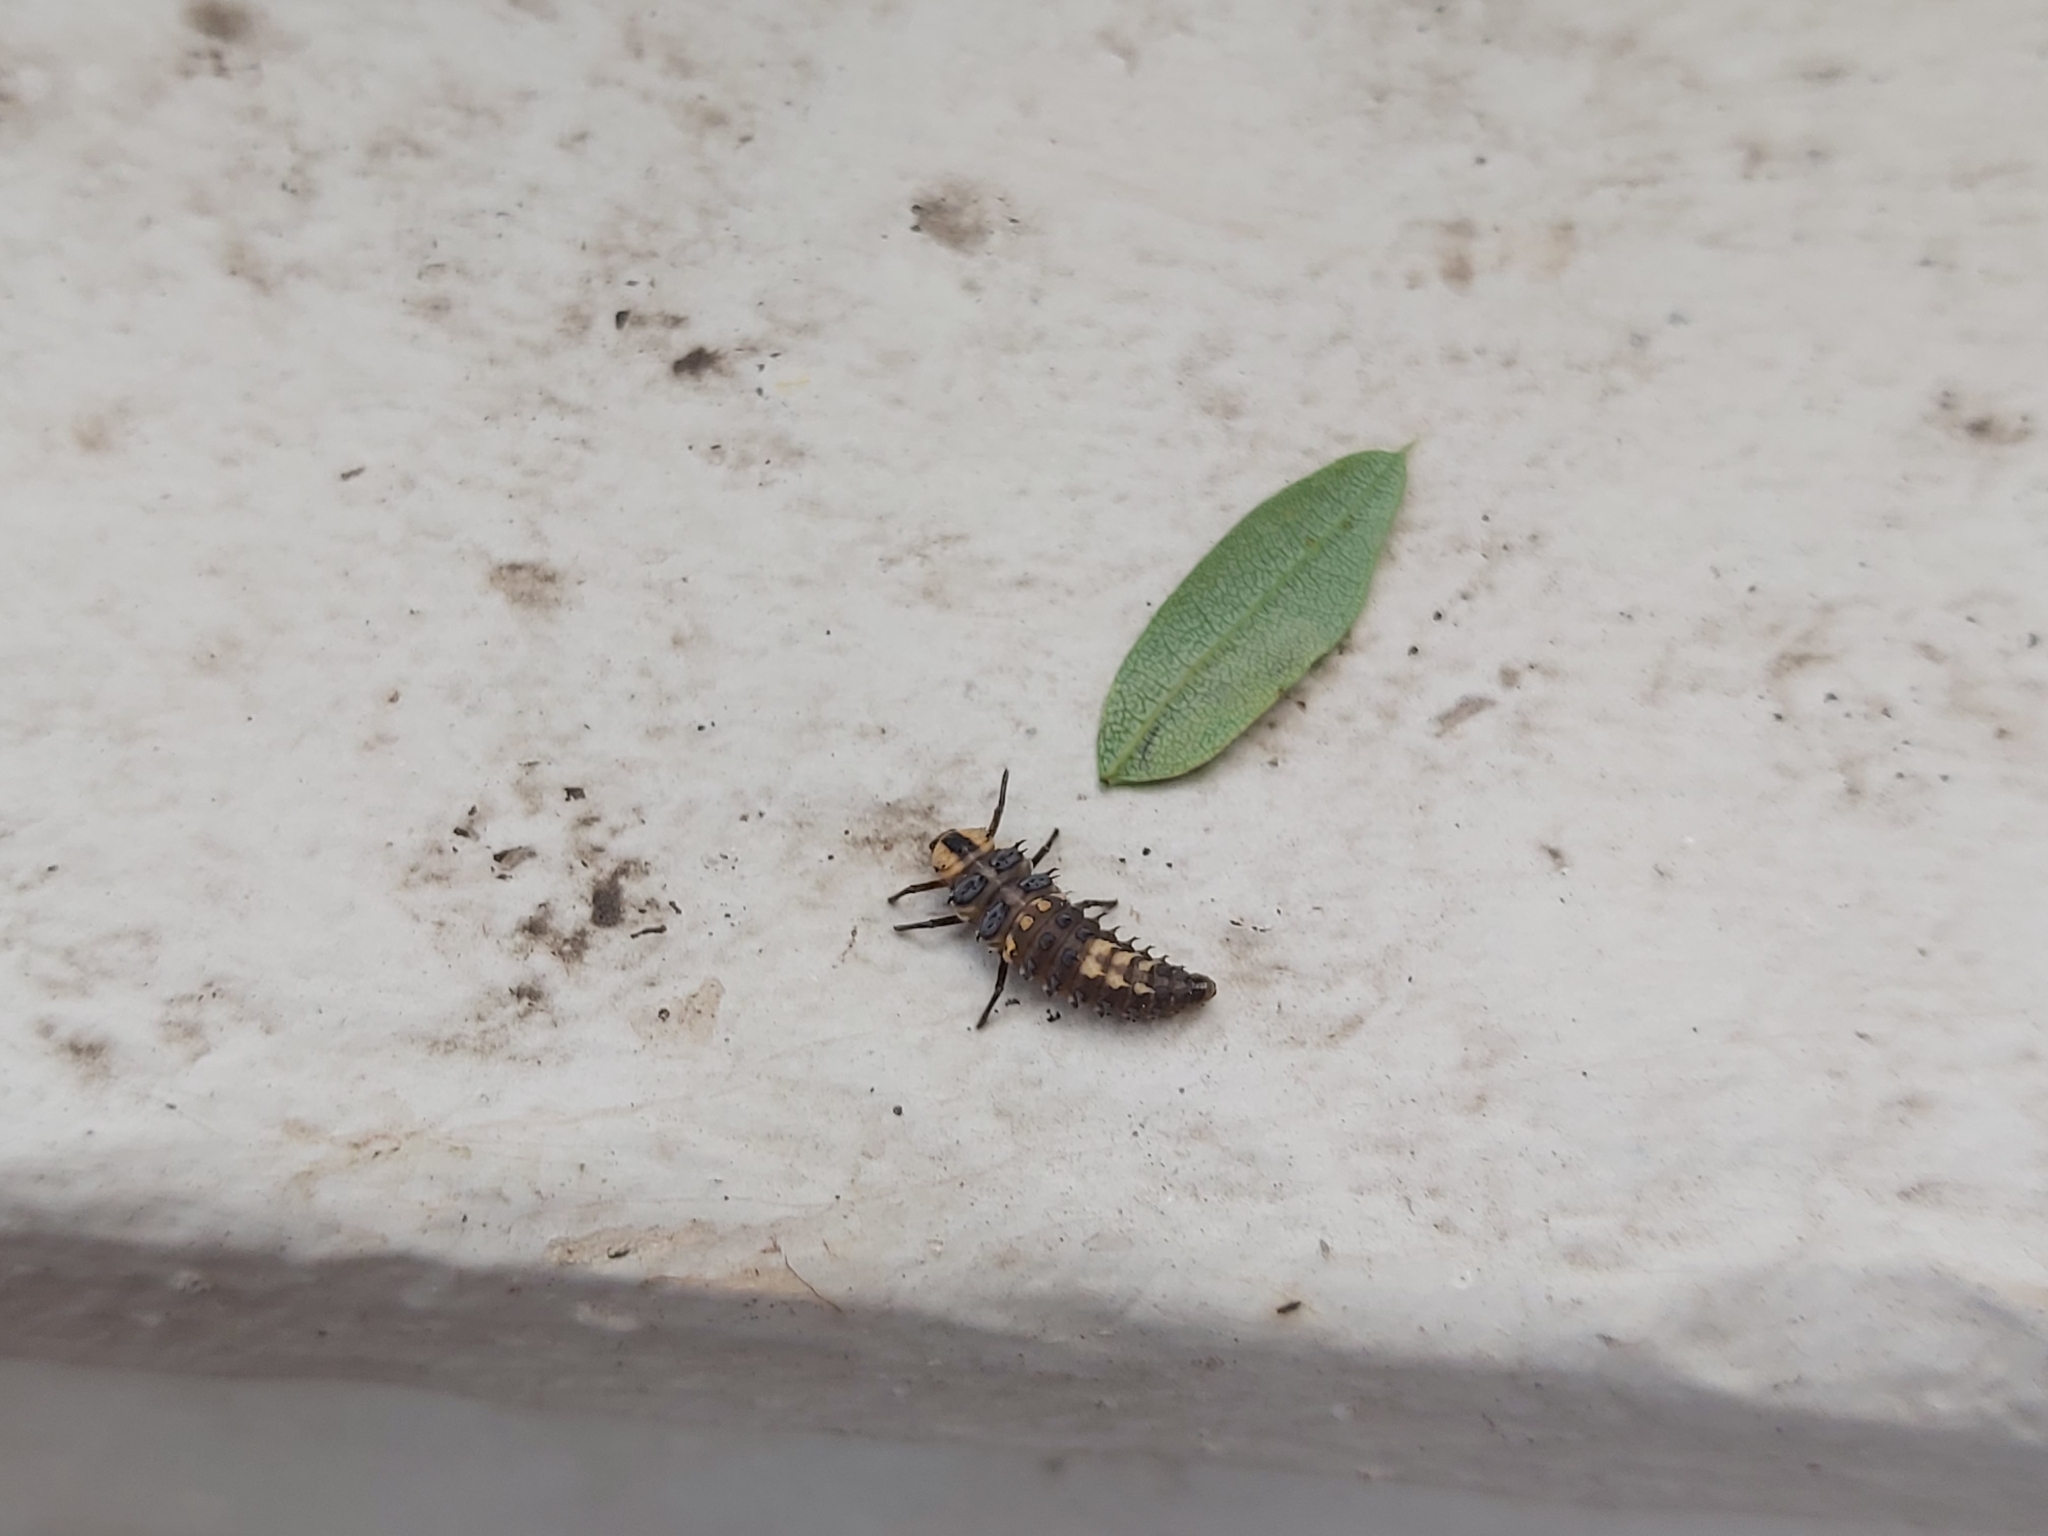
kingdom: Animalia
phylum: Arthropoda
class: Insecta
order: Coleoptera
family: Coccinellidae
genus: Harmonia
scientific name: Harmonia
